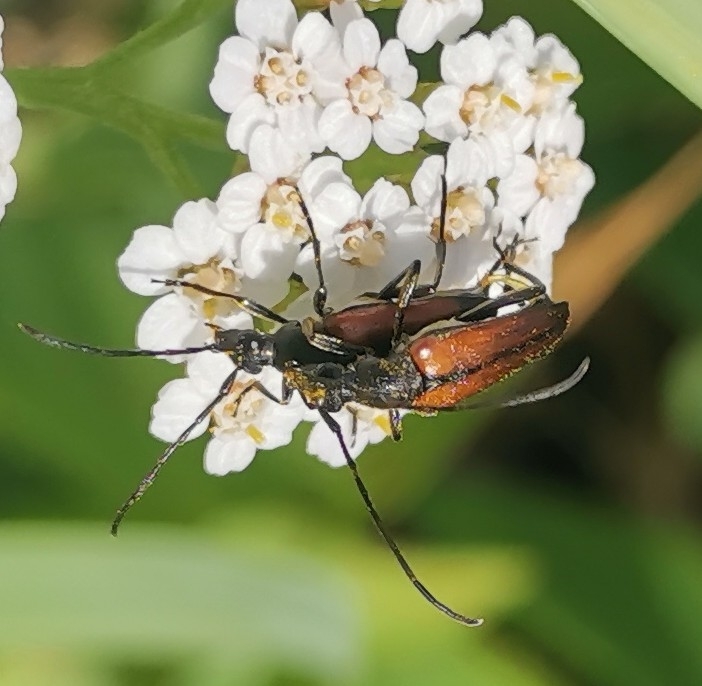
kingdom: Animalia
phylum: Arthropoda
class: Insecta
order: Coleoptera
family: Cerambycidae
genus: Stenurella
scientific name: Stenurella melanura
